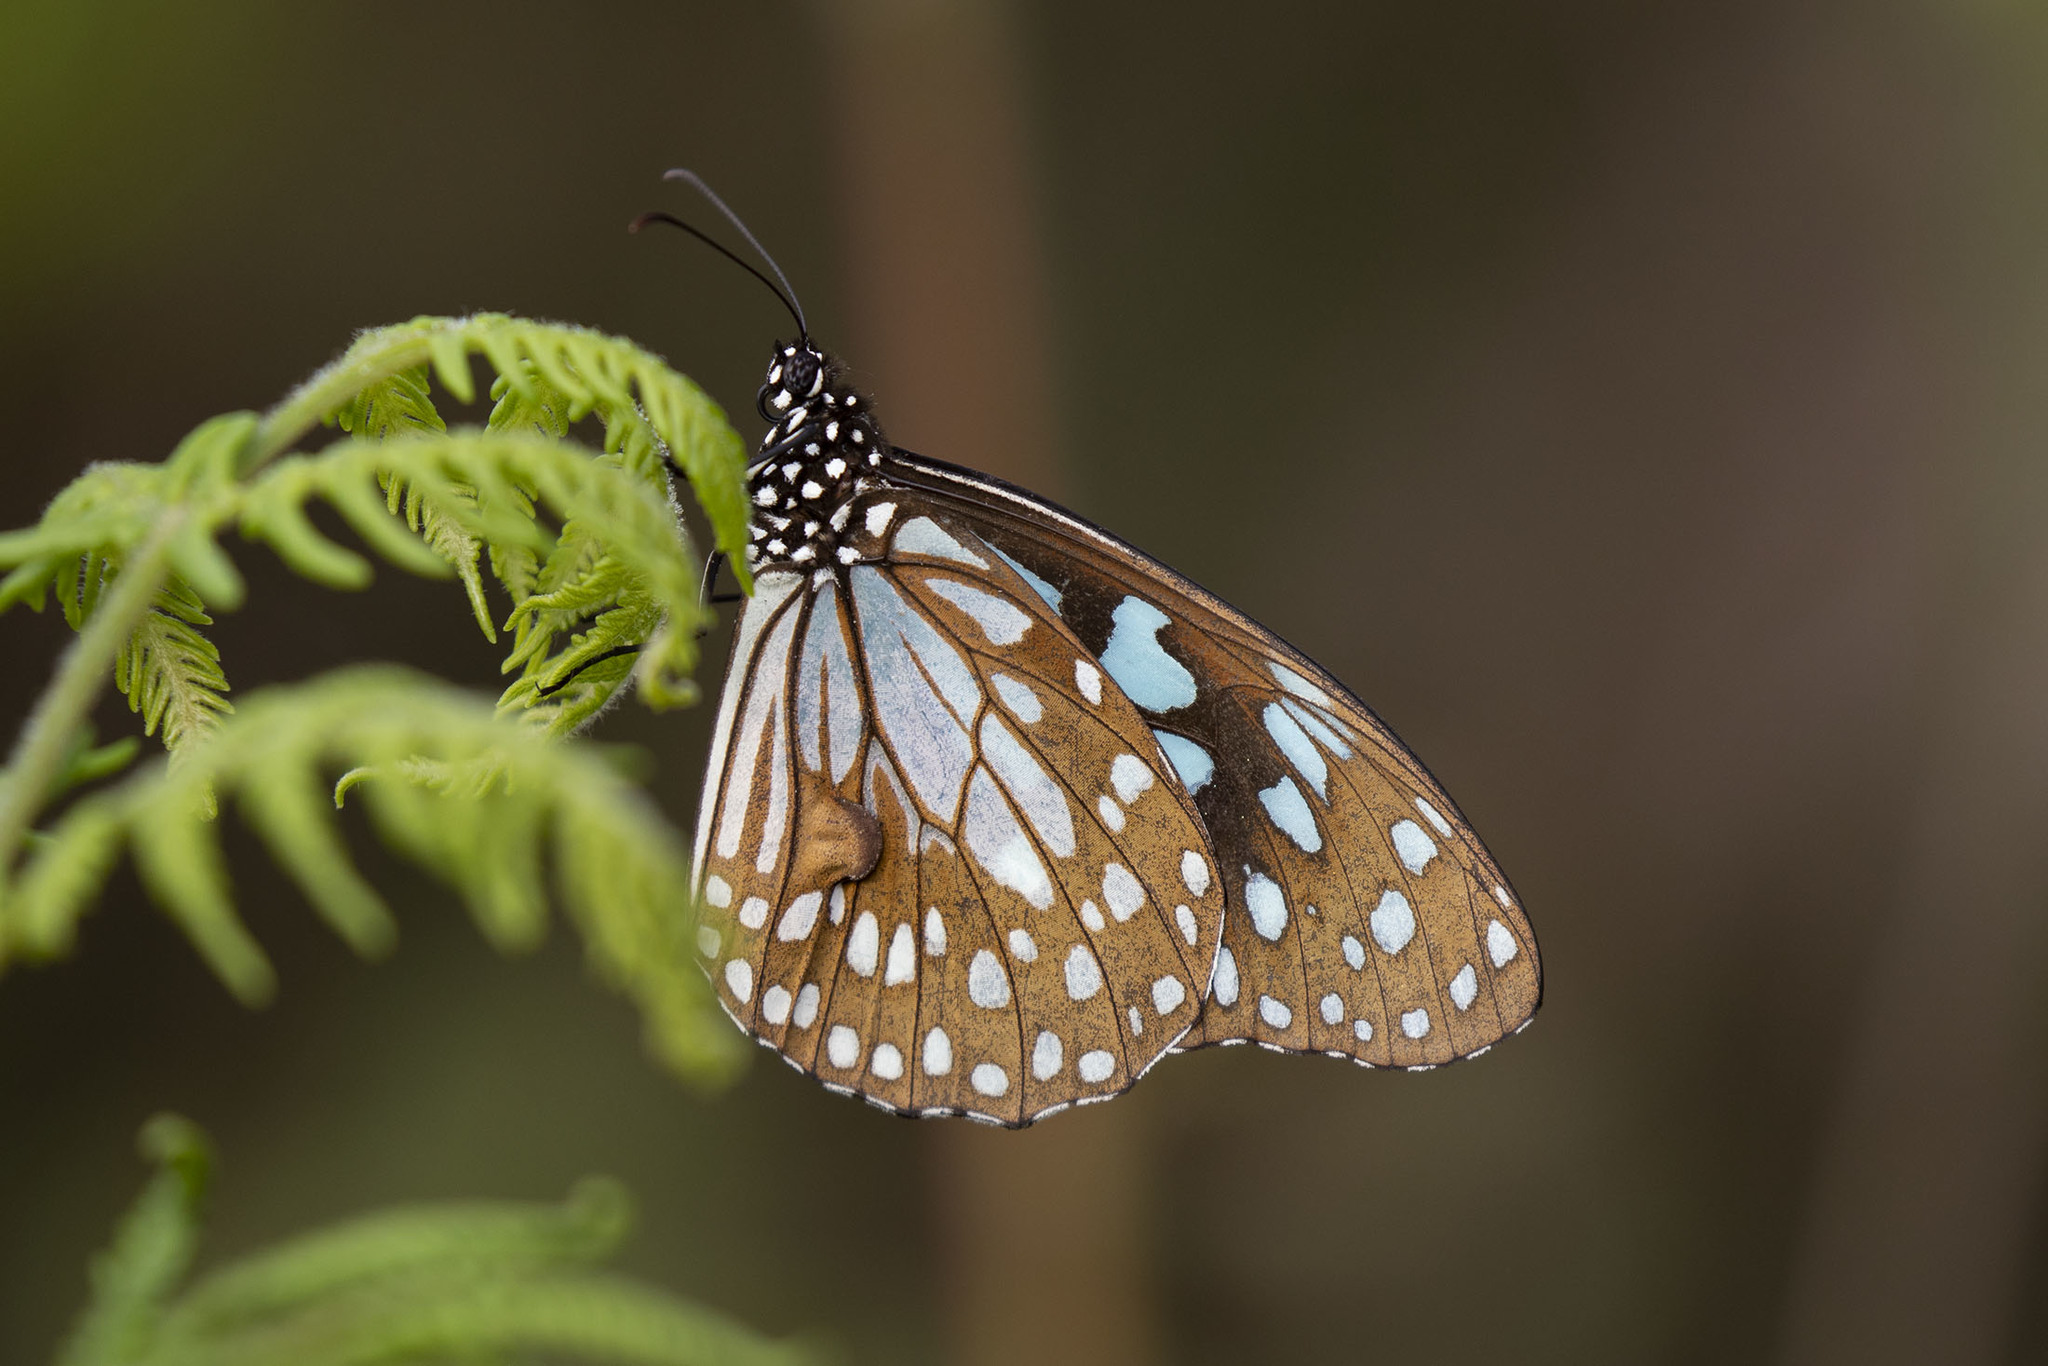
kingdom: Animalia
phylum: Arthropoda
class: Insecta
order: Lepidoptera
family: Nymphalidae
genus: Tirumala
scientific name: Tirumala limniace
